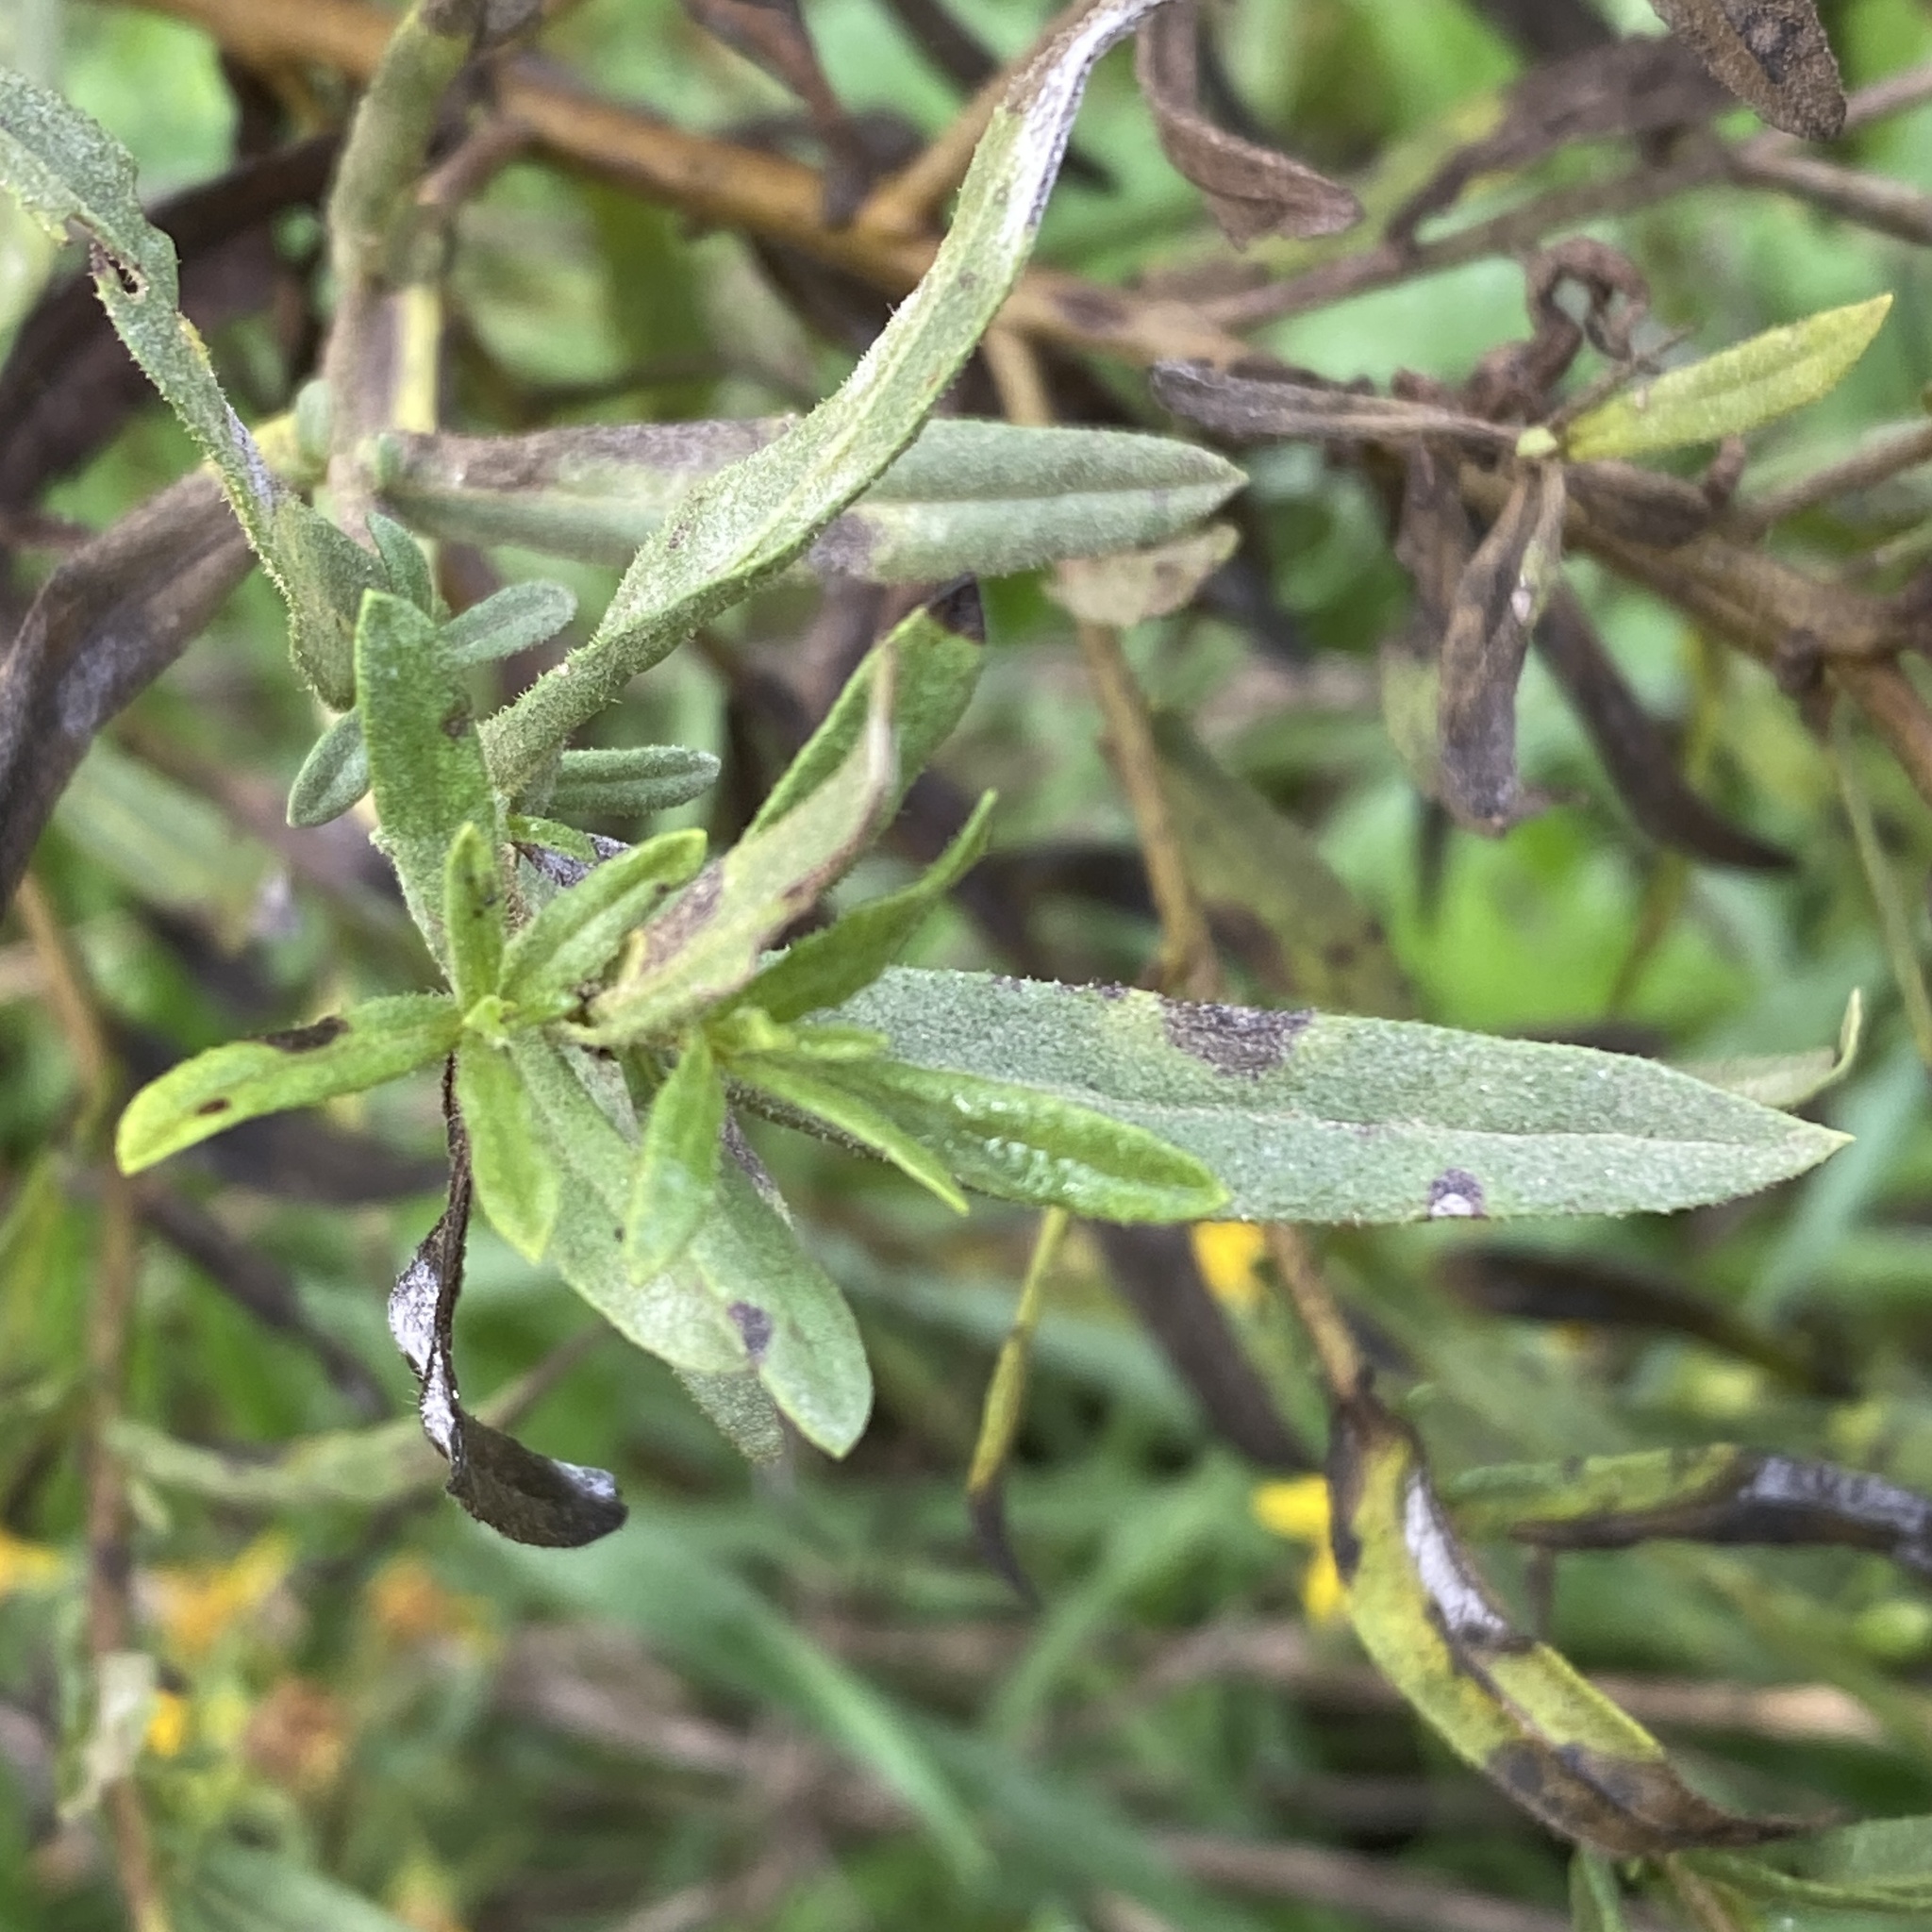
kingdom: Plantae
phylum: Tracheophyta
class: Magnoliopsida
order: Asterales
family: Asteraceae
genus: Solidago
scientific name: Solidago virgaurea
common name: Goldenrod
